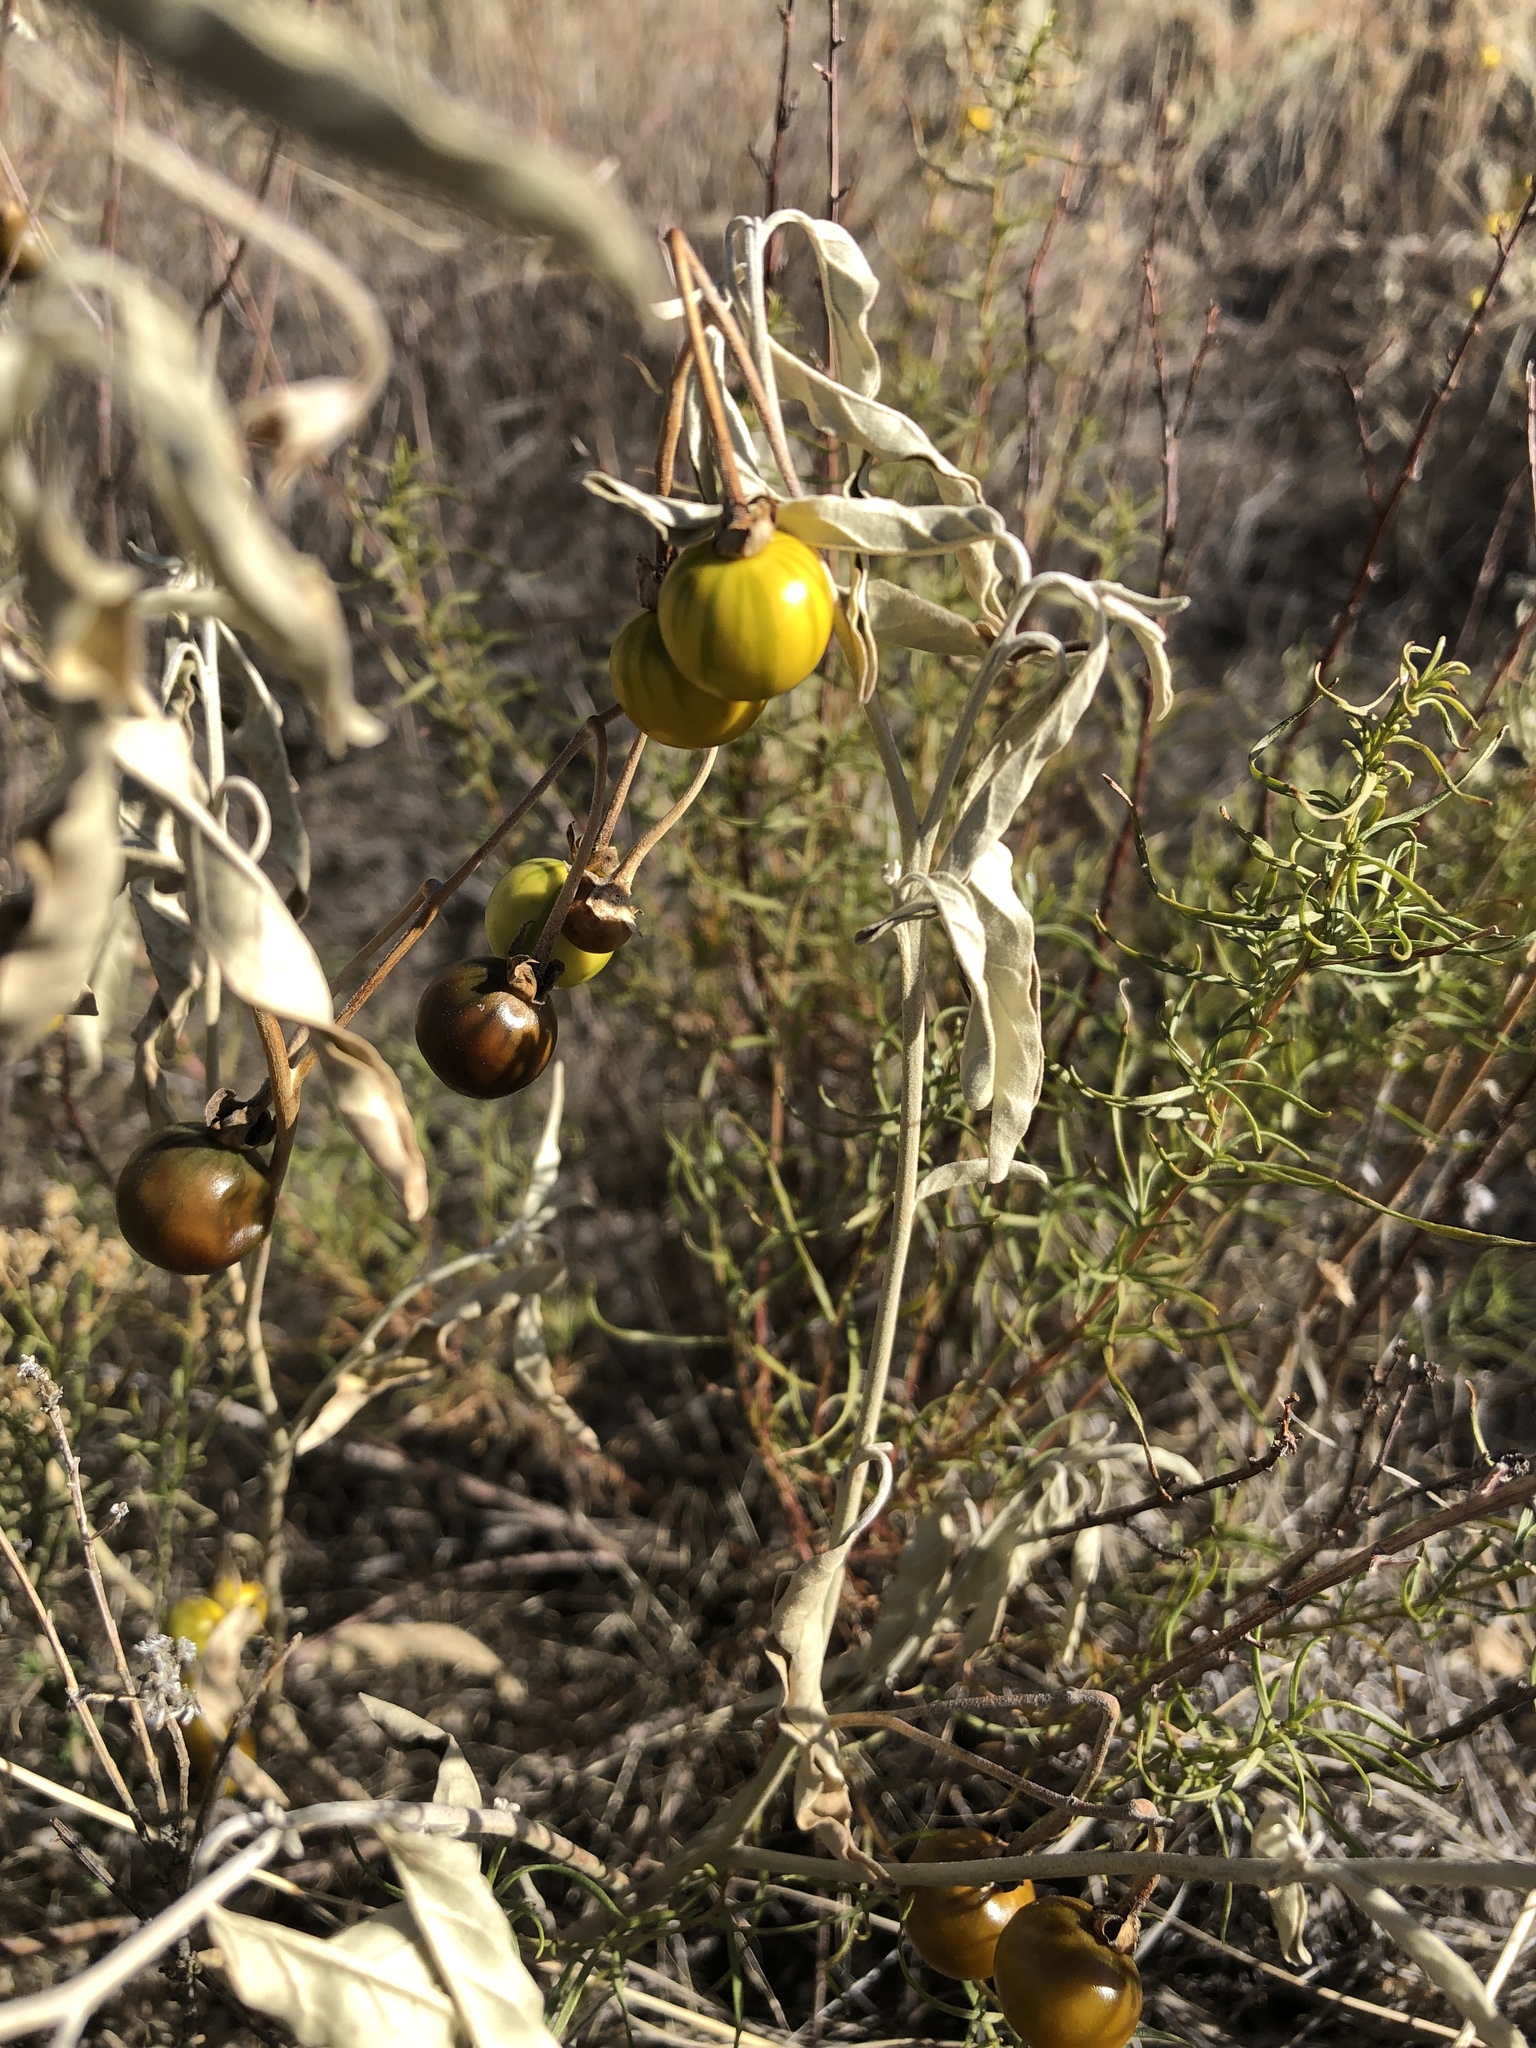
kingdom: Plantae
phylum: Tracheophyta
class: Magnoliopsida
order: Solanales
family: Solanaceae
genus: Solanum
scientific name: Solanum elaeagnifolium
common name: Silverleaf nightshade
